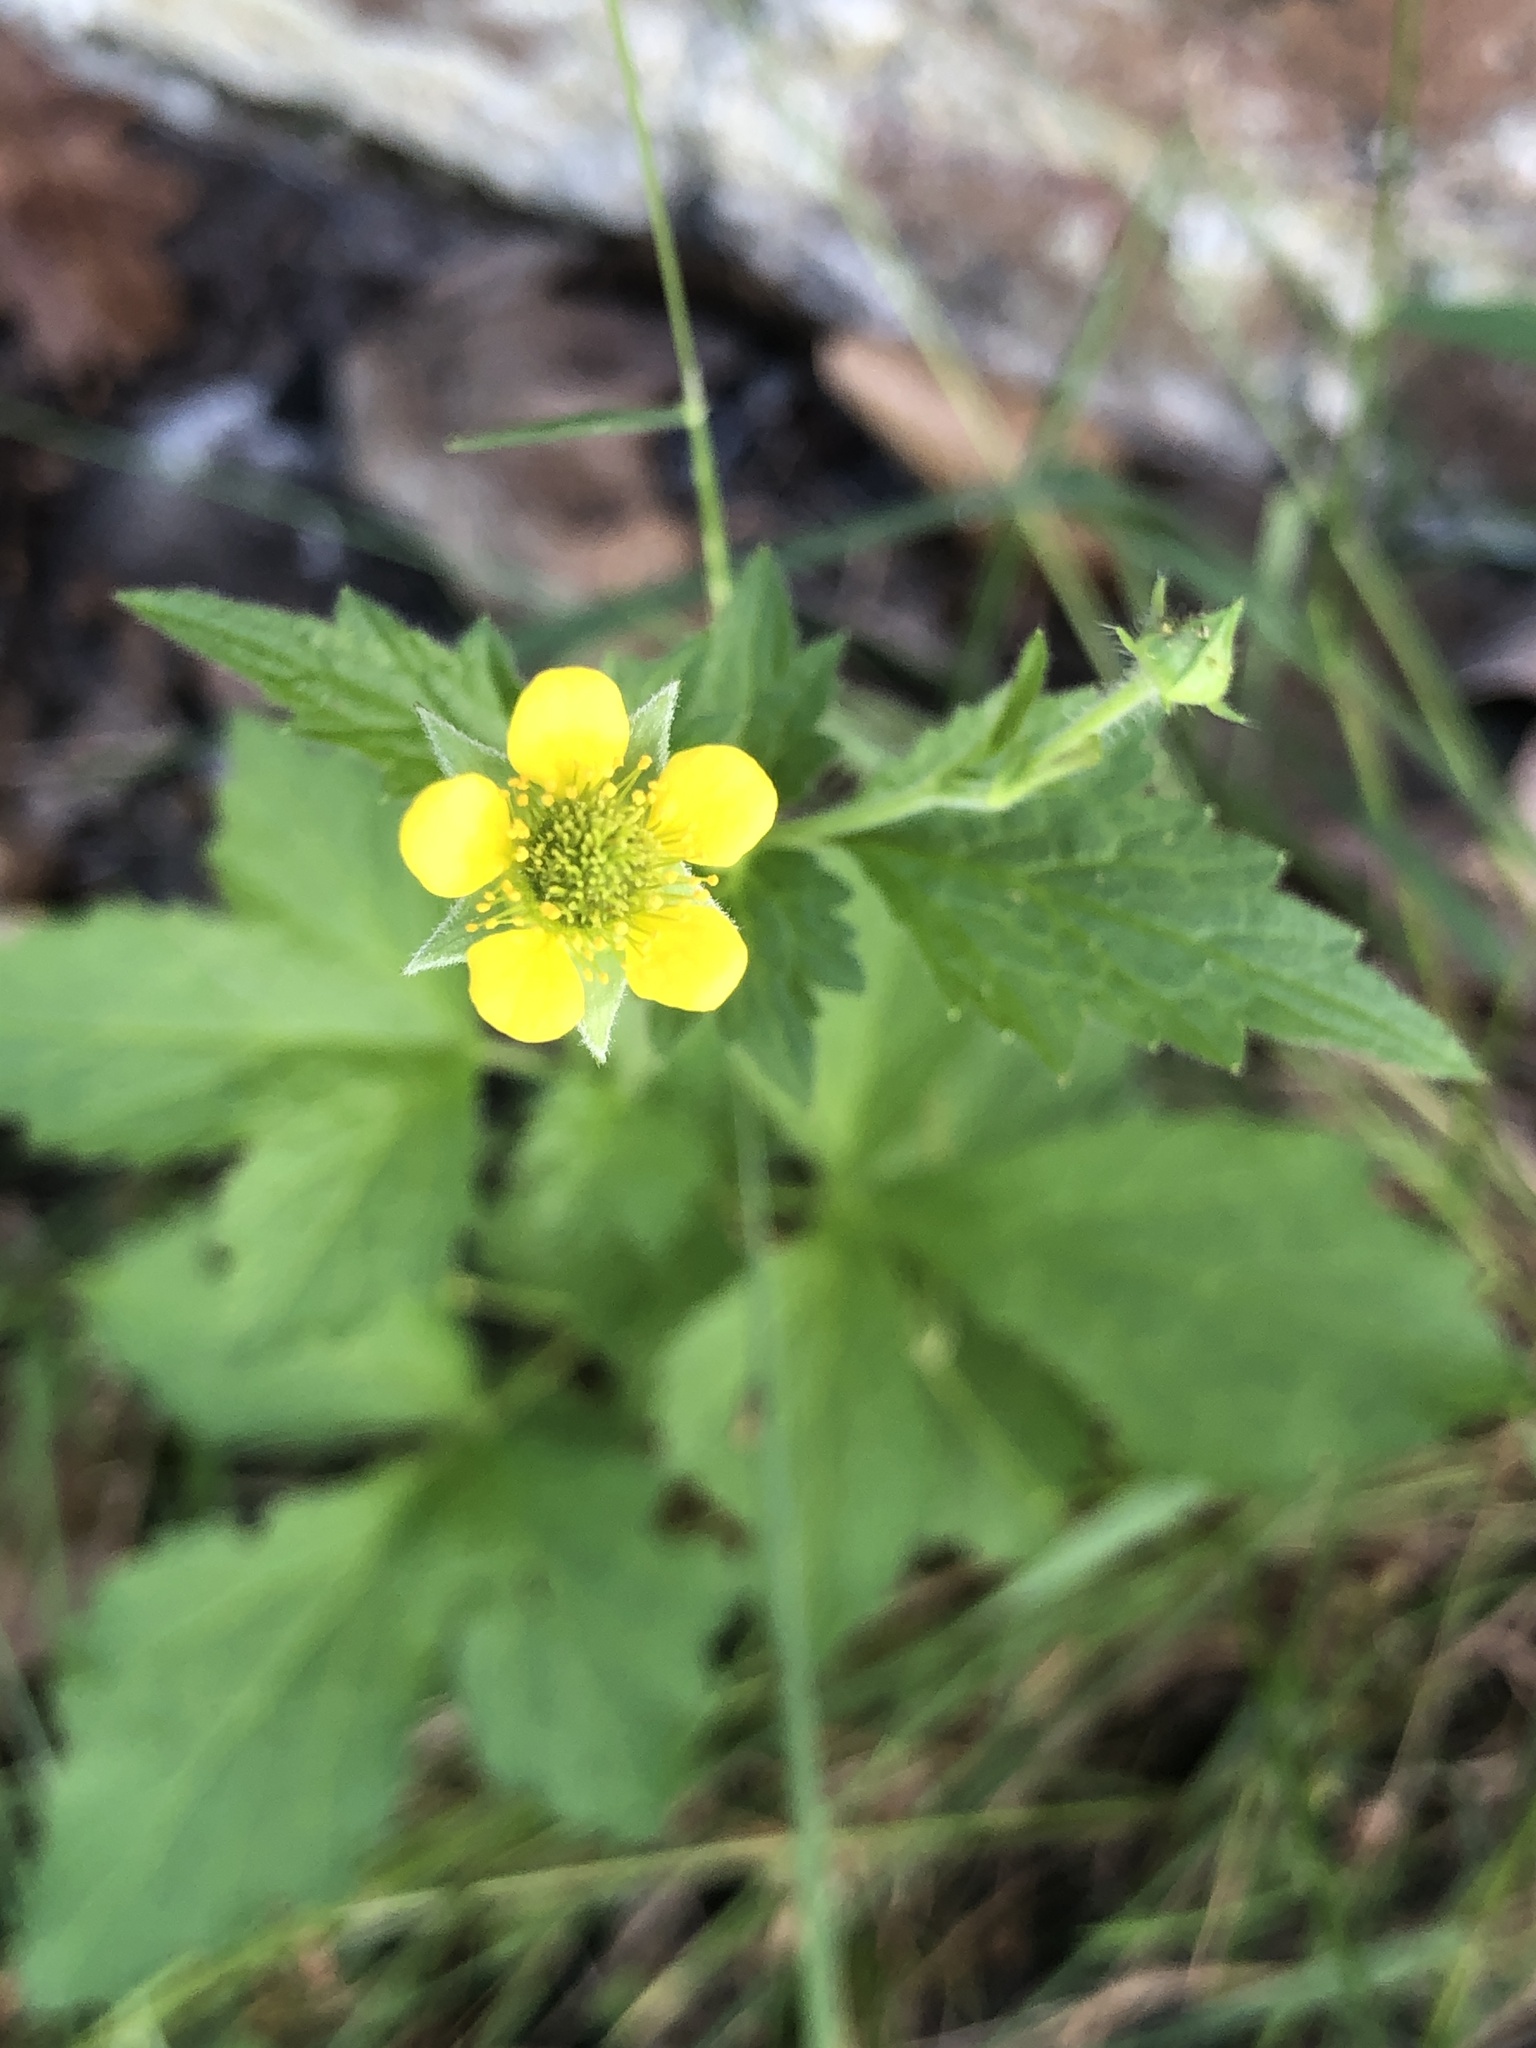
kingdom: Plantae
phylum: Tracheophyta
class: Magnoliopsida
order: Rosales
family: Rosaceae
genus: Geum
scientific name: Geum urbanum
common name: Wood avens
